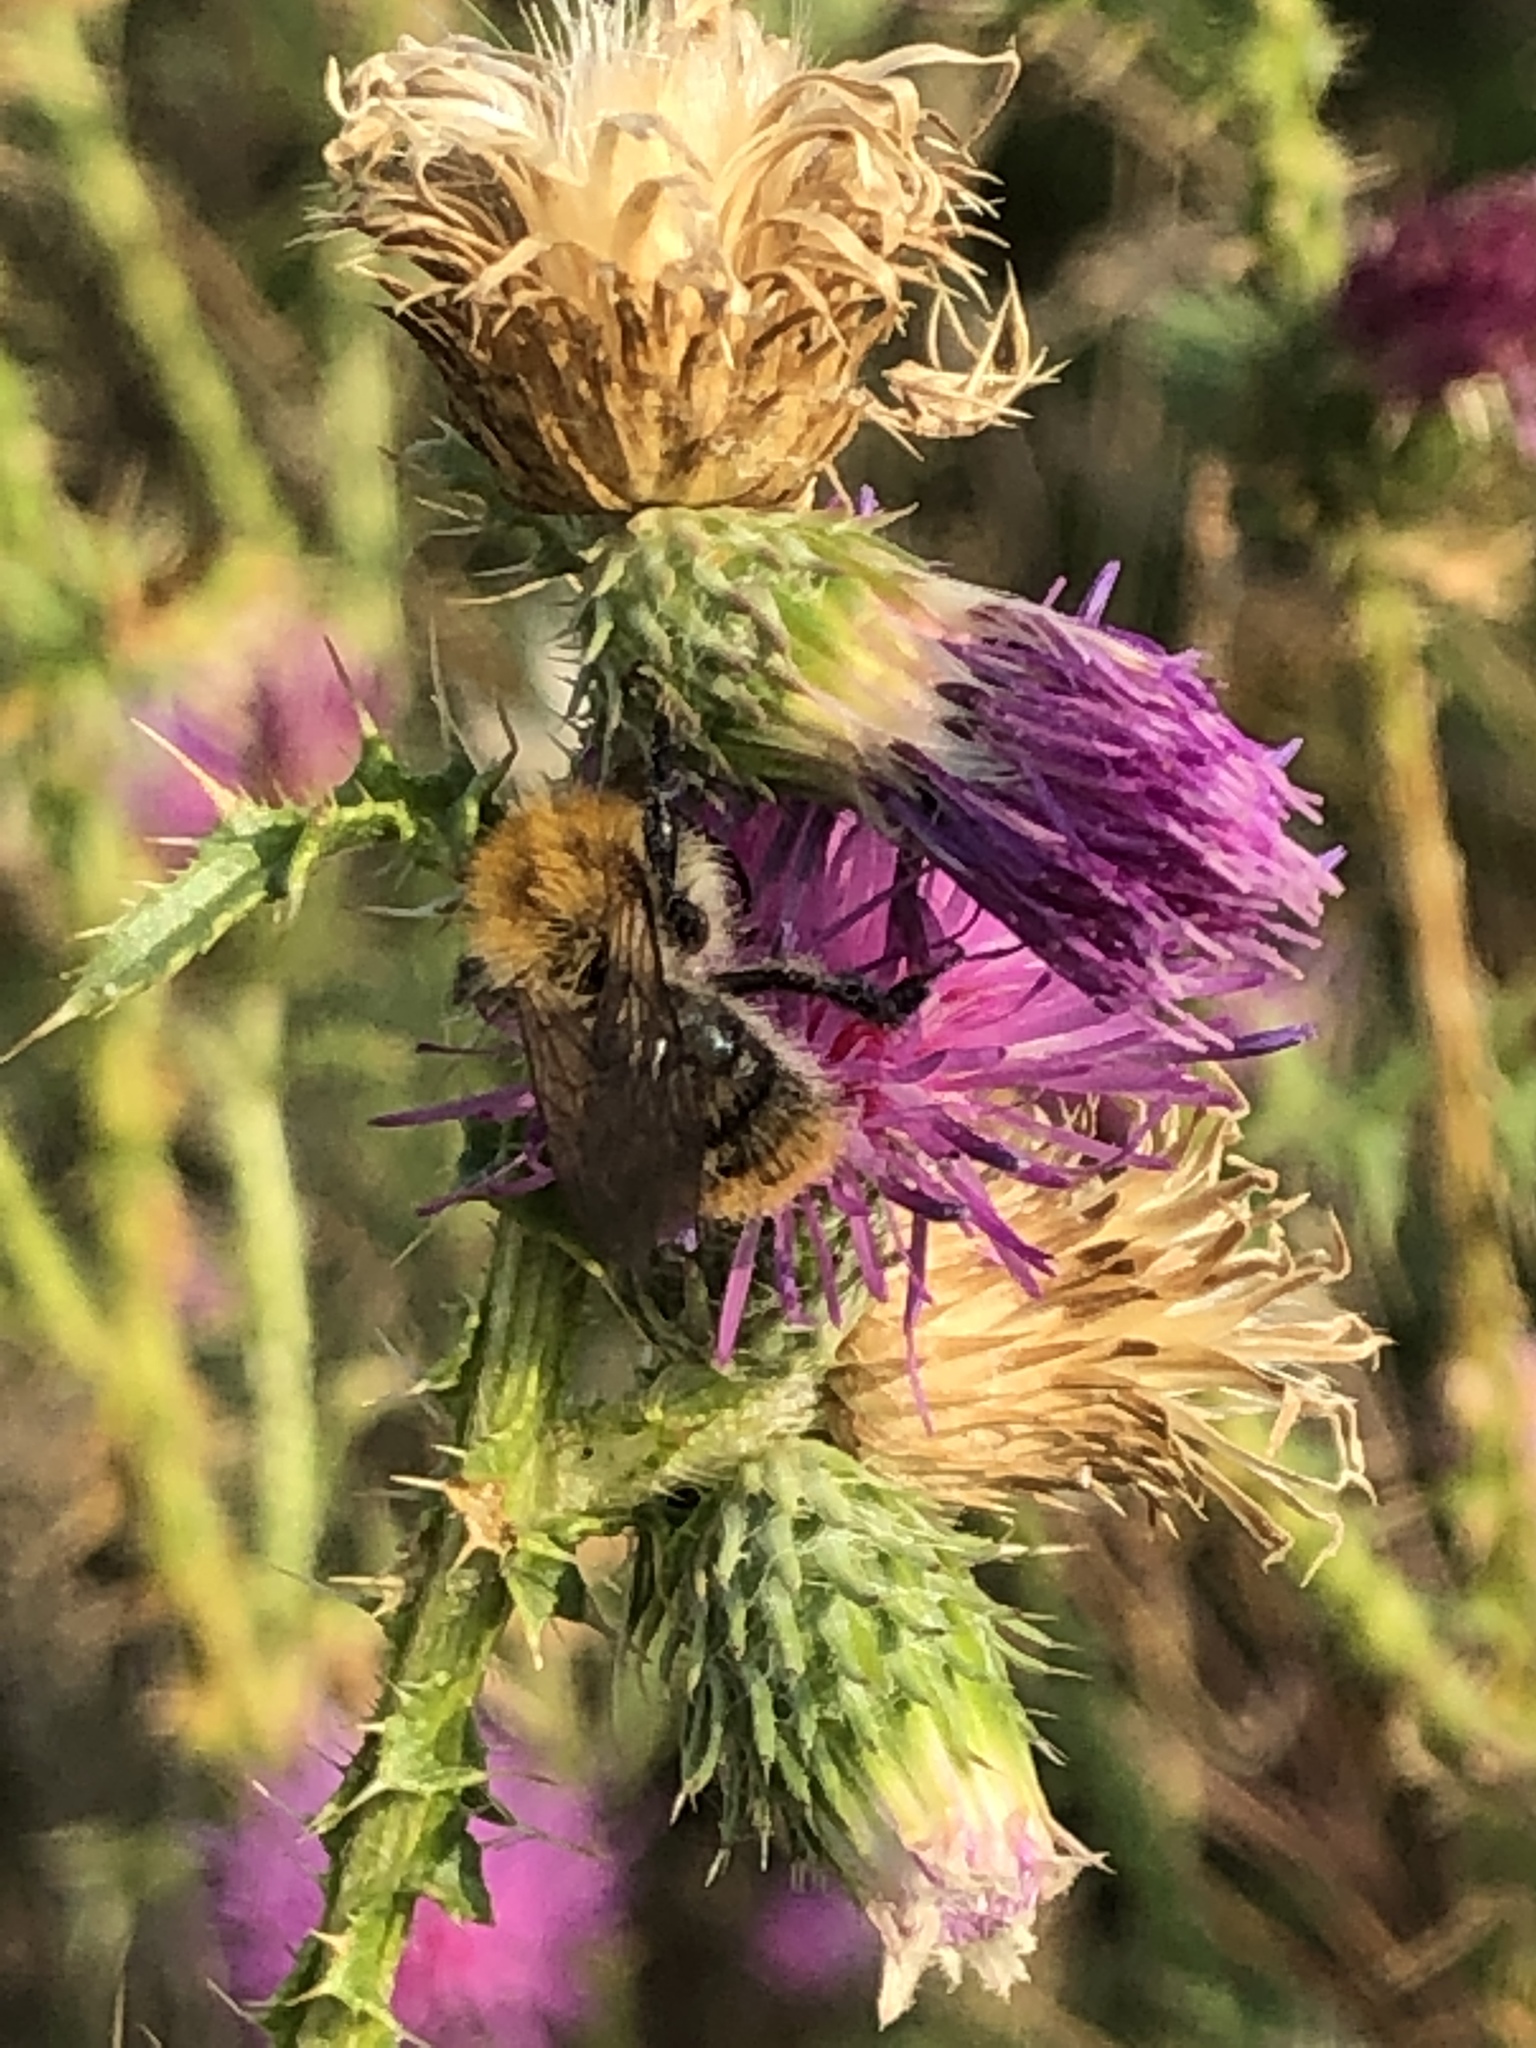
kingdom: Animalia
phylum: Arthropoda
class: Insecta
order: Hymenoptera
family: Apidae
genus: Bombus
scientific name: Bombus pascuorum
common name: Common carder bee
